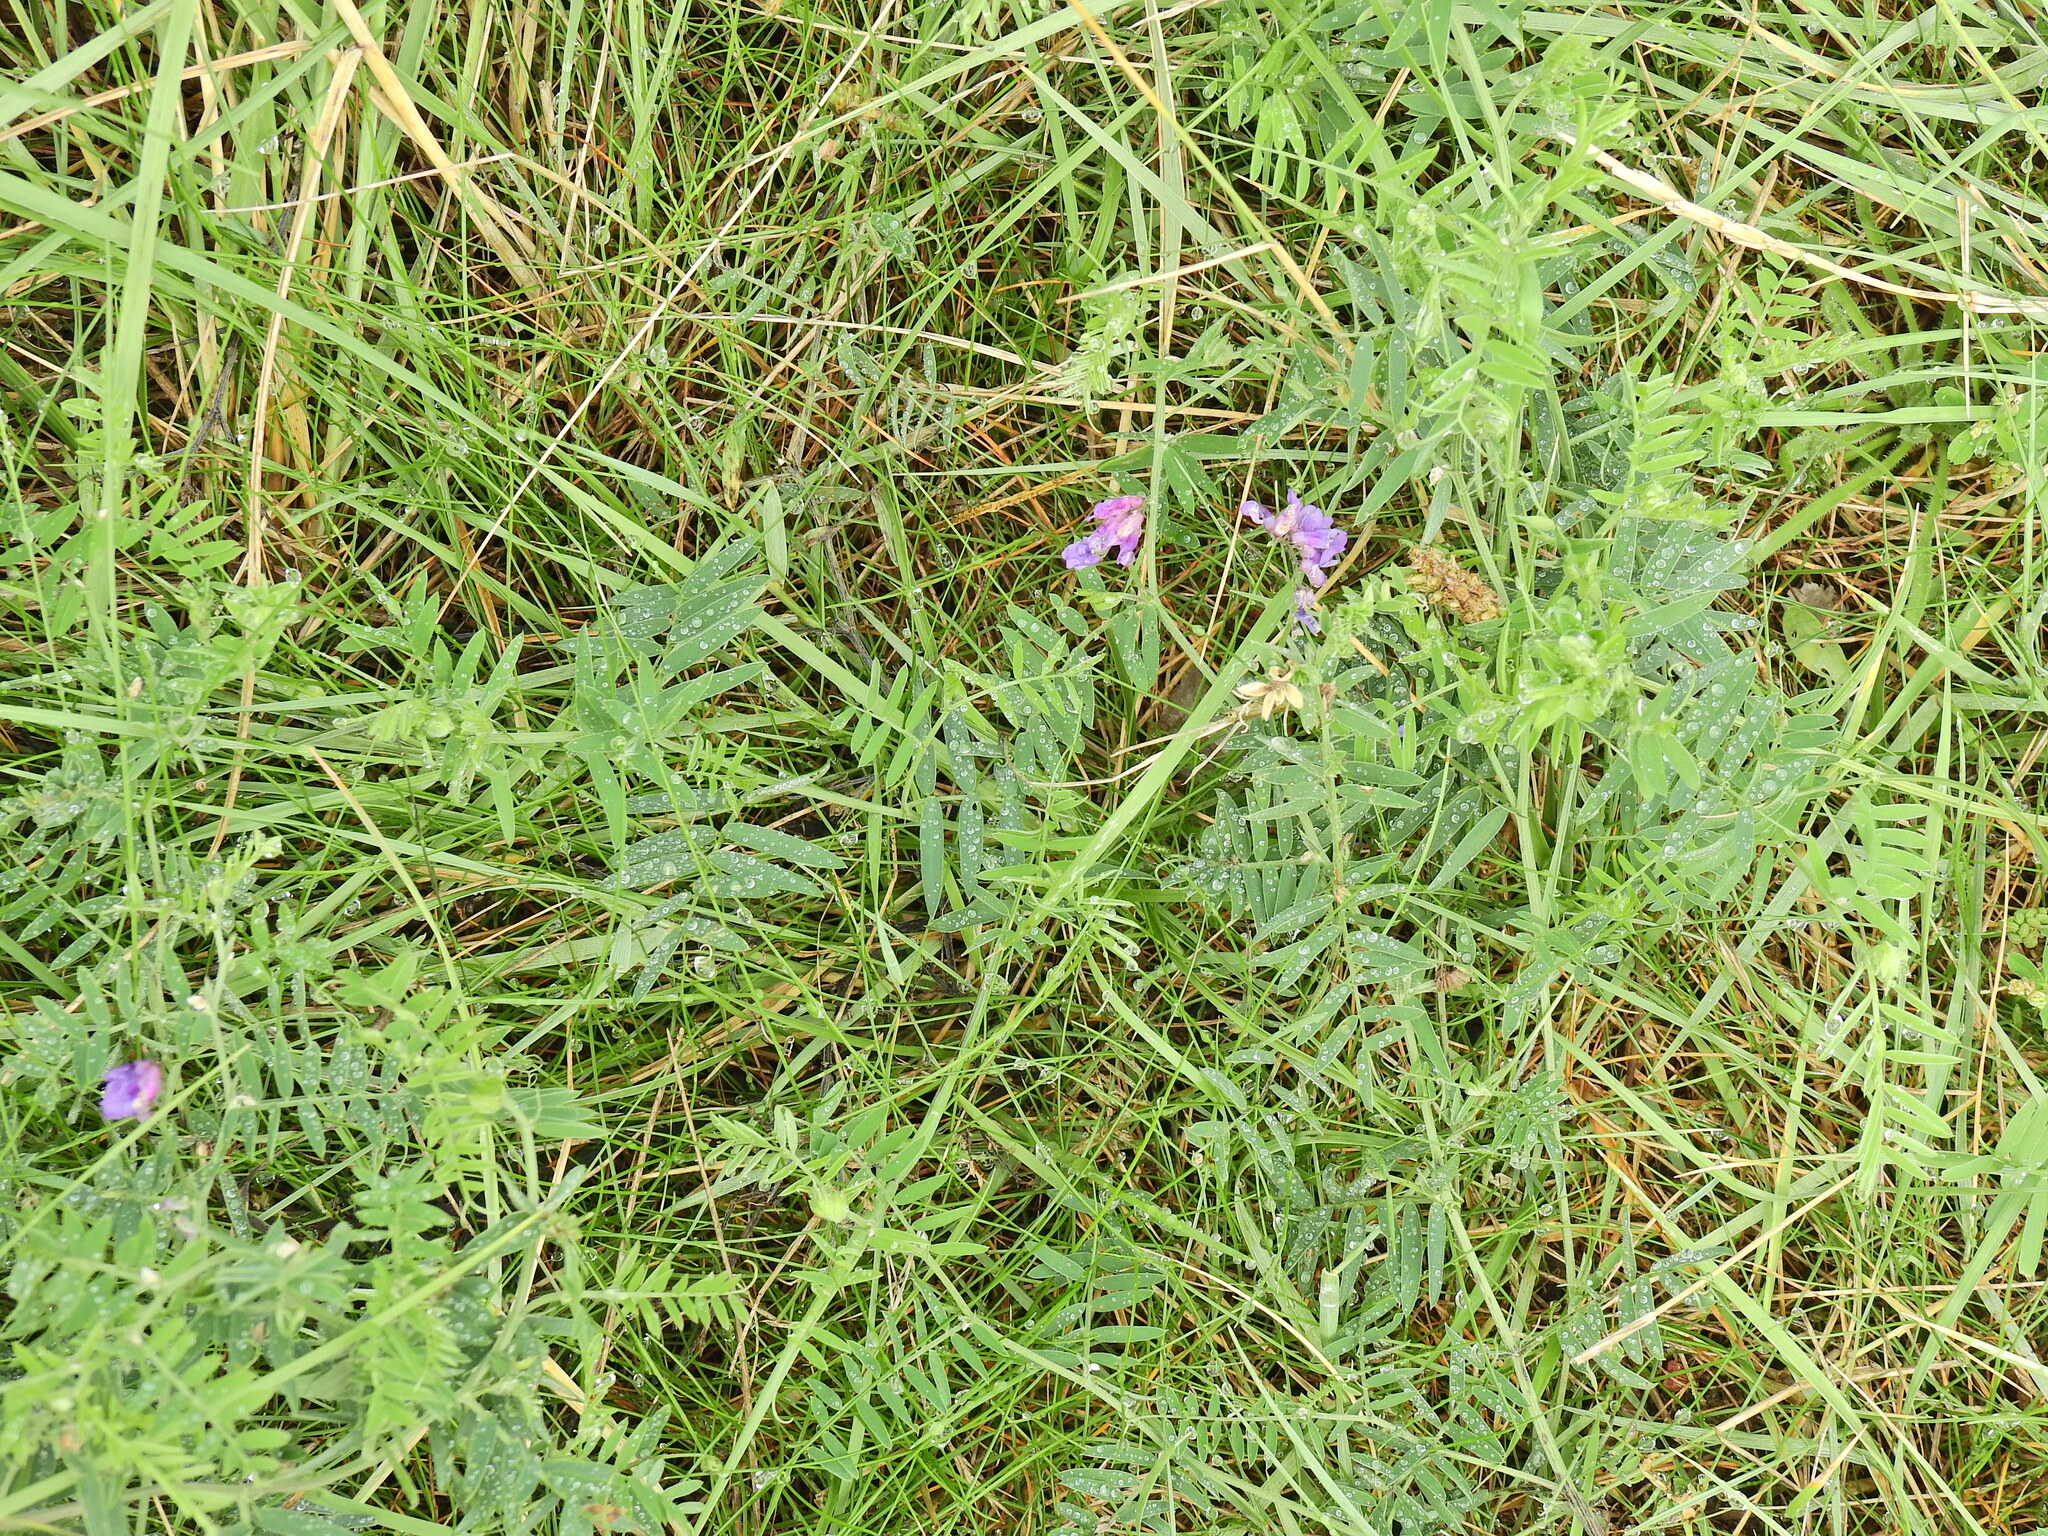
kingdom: Plantae
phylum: Tracheophyta
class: Magnoliopsida
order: Fabales
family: Fabaceae
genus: Vicia
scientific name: Vicia cracca
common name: Bird vetch
